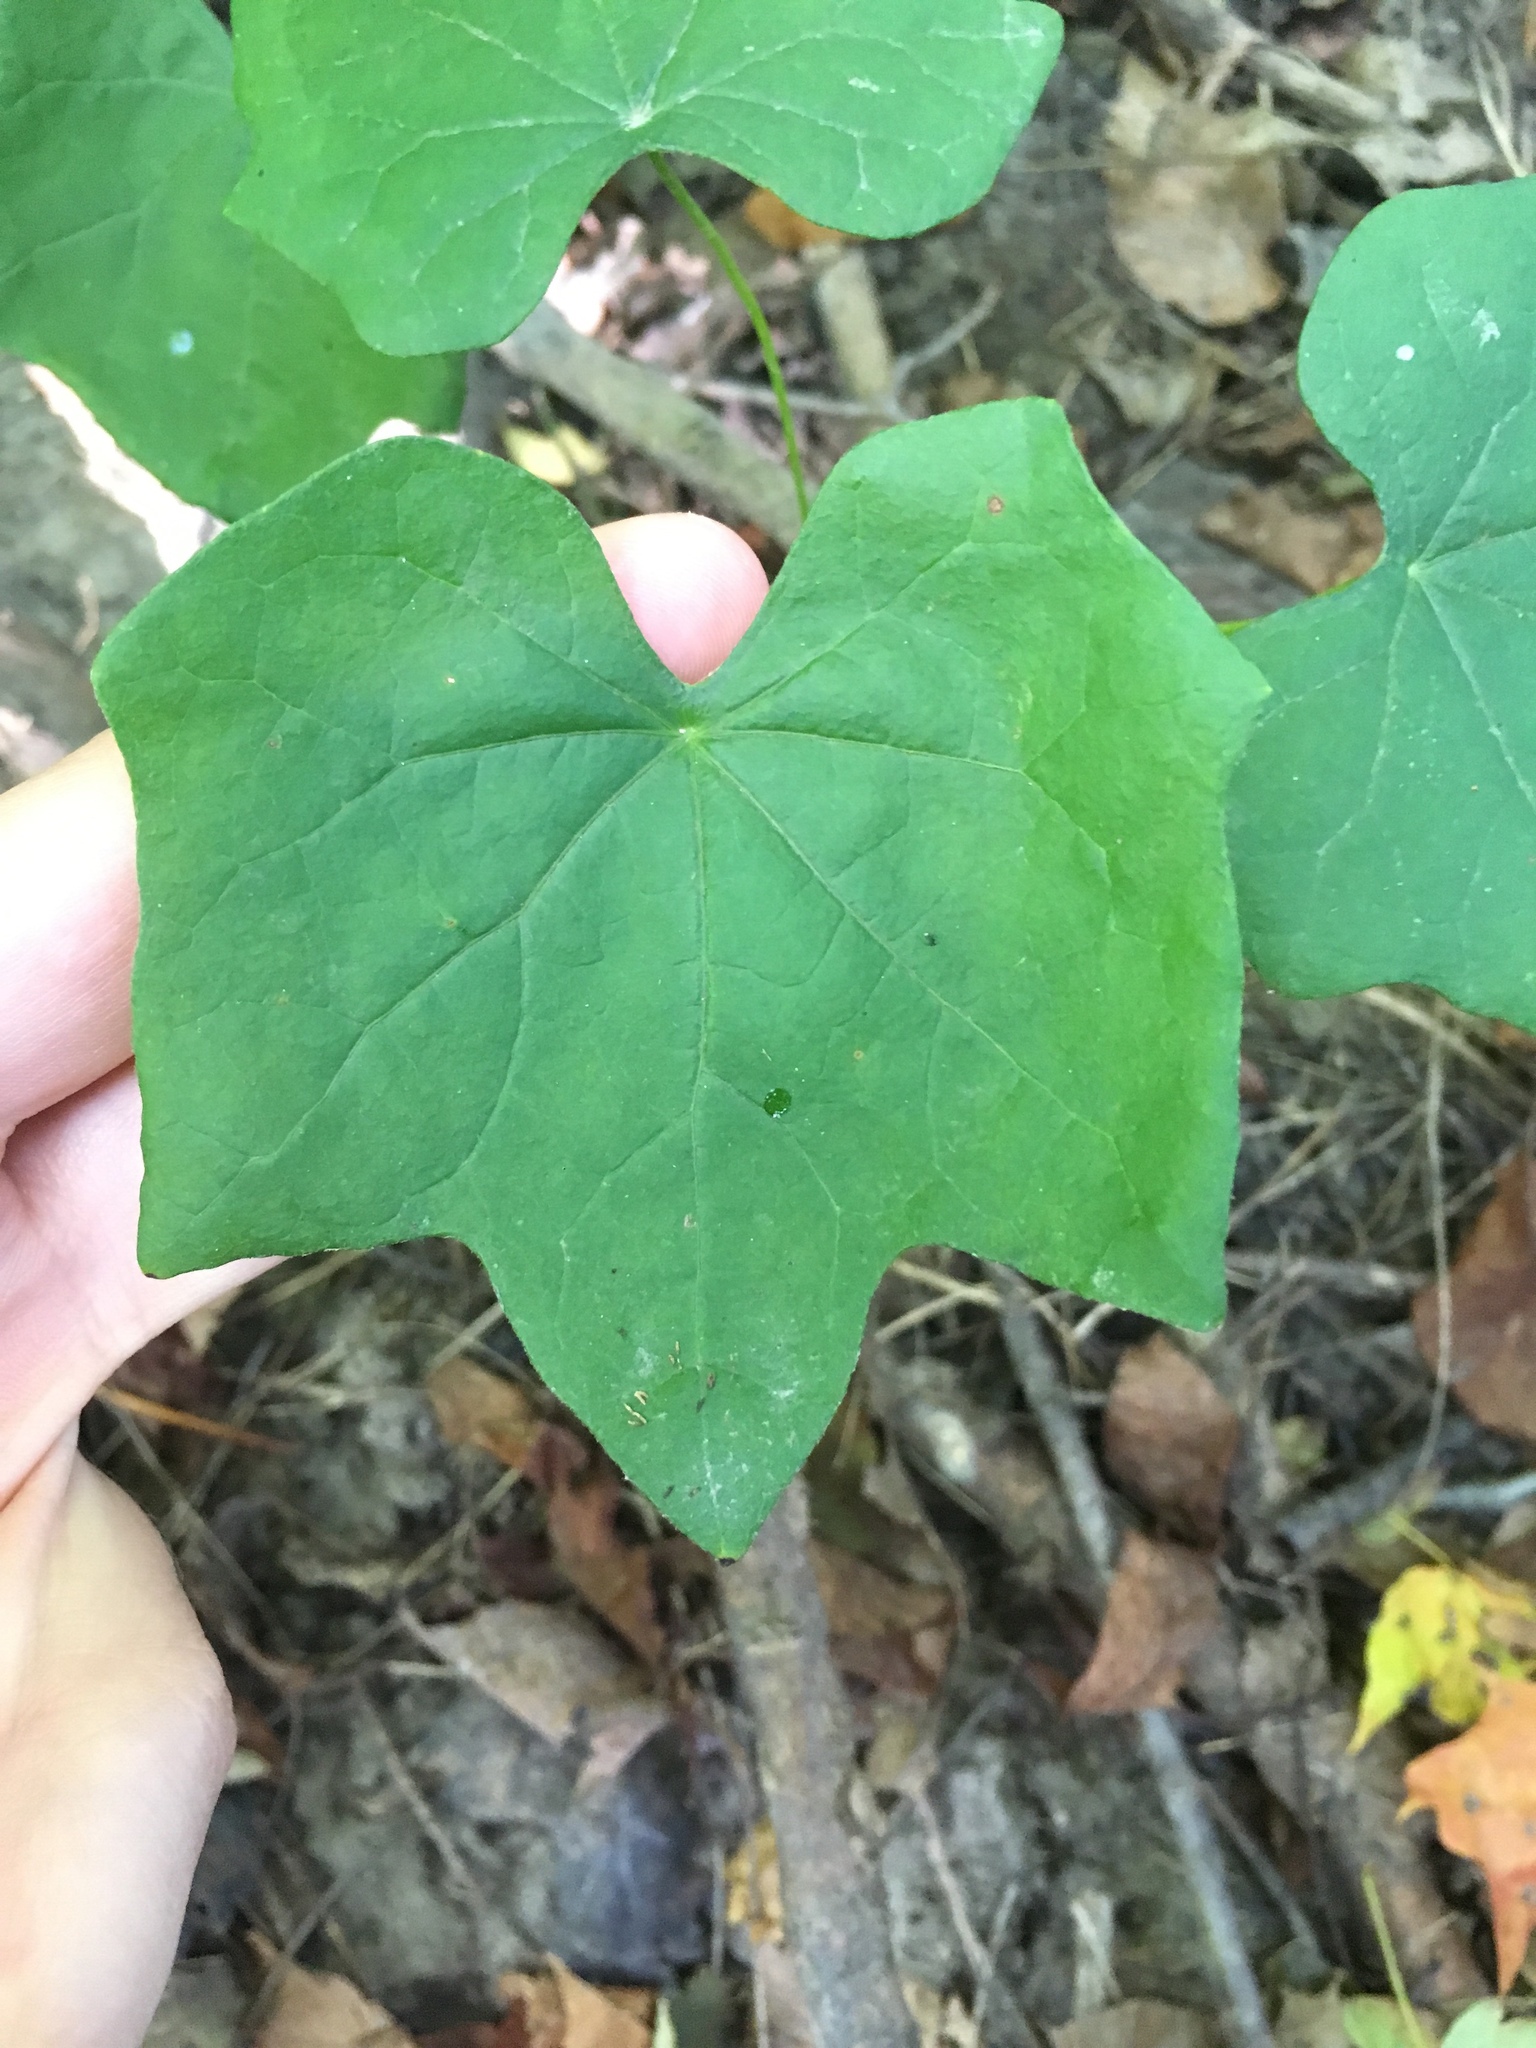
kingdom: Plantae
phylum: Tracheophyta
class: Magnoliopsida
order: Ranunculales
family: Menispermaceae
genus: Menispermum
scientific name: Menispermum canadense
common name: Moonseed
